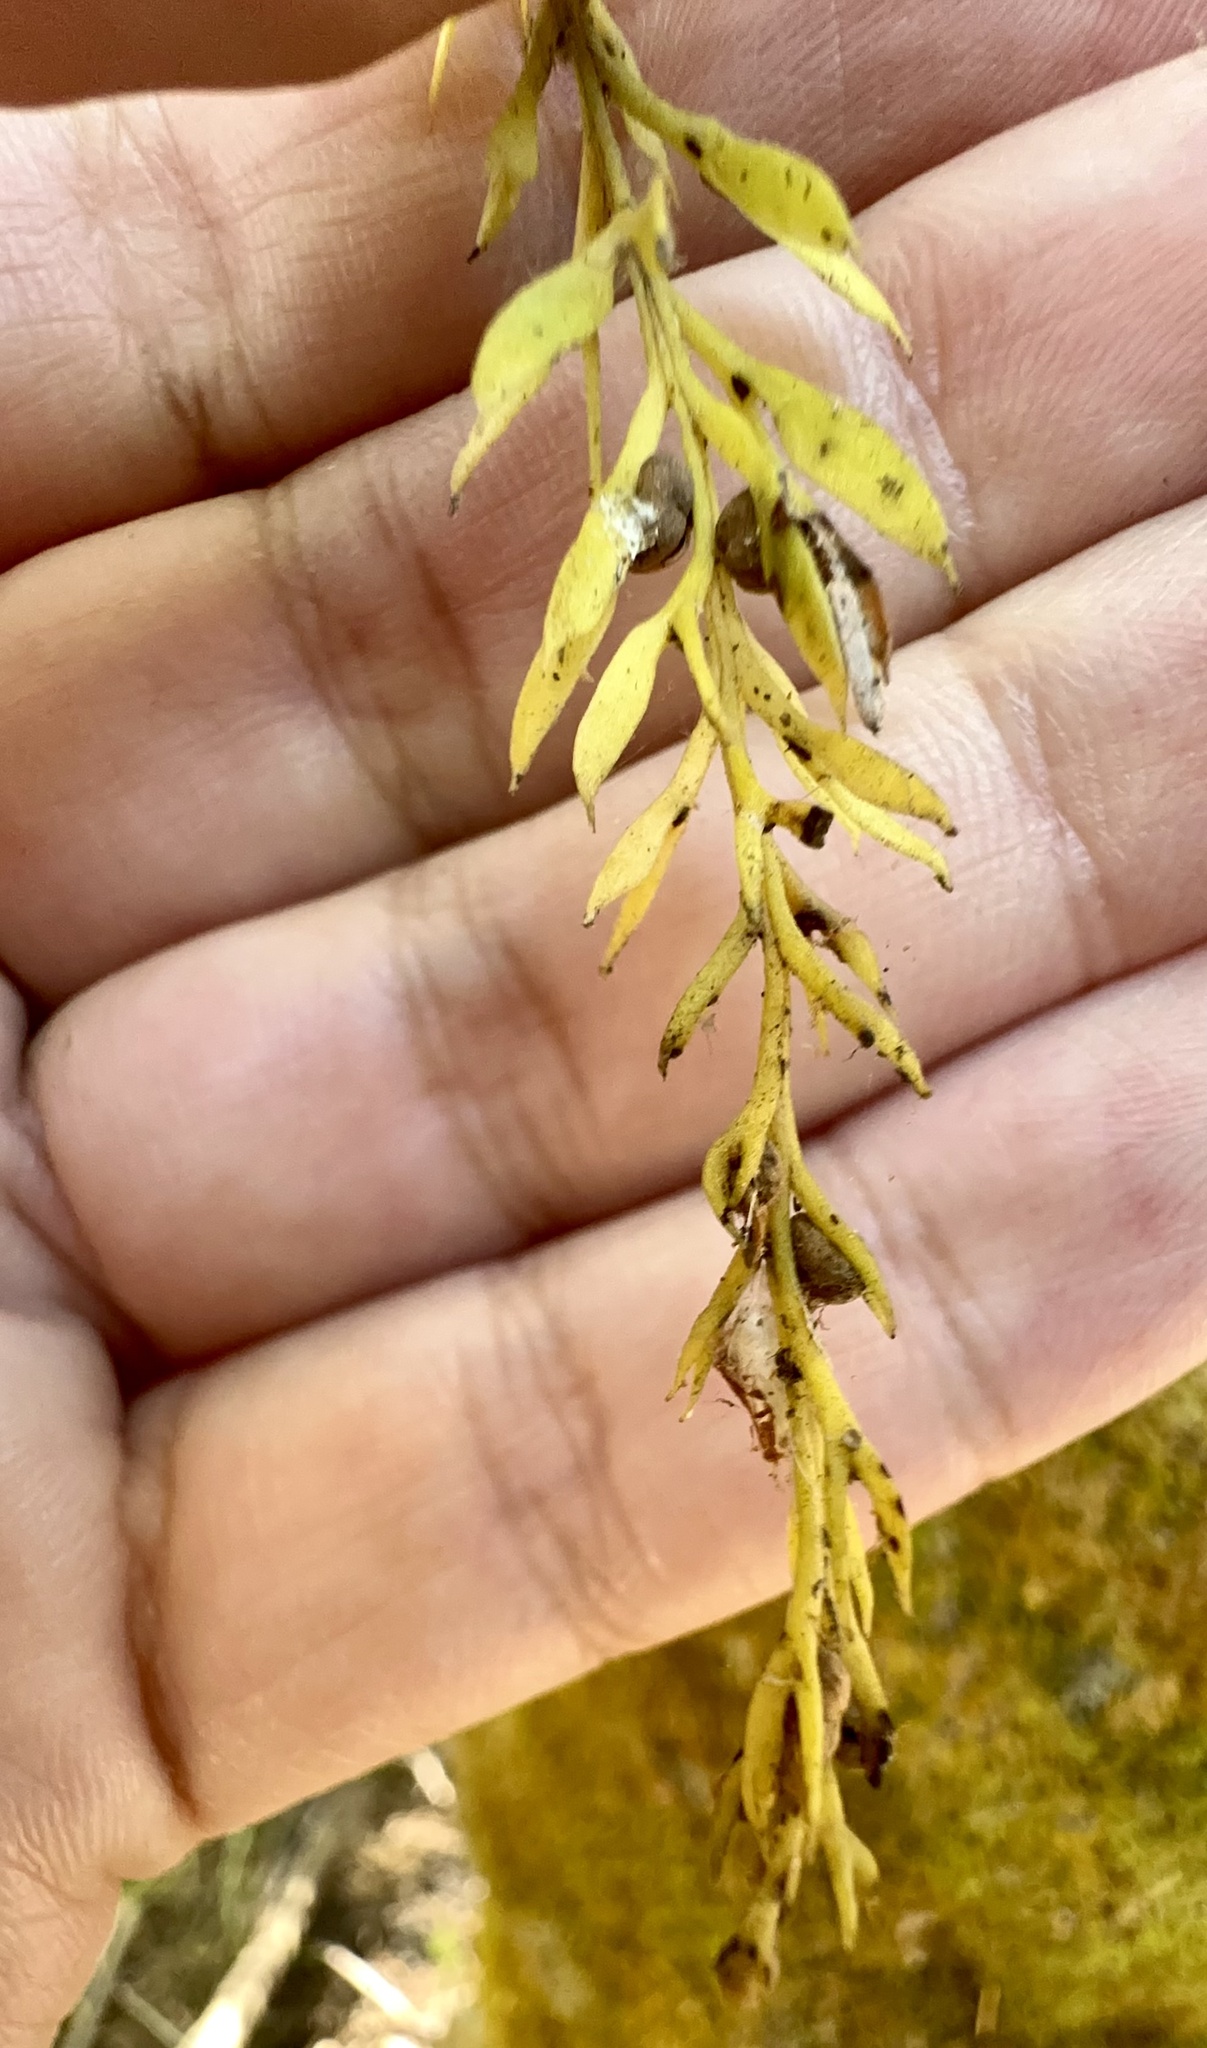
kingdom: Plantae
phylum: Tracheophyta
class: Polypodiopsida
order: Psilotales
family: Psilotaceae
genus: Tmesipteris
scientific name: Tmesipteris elongata
